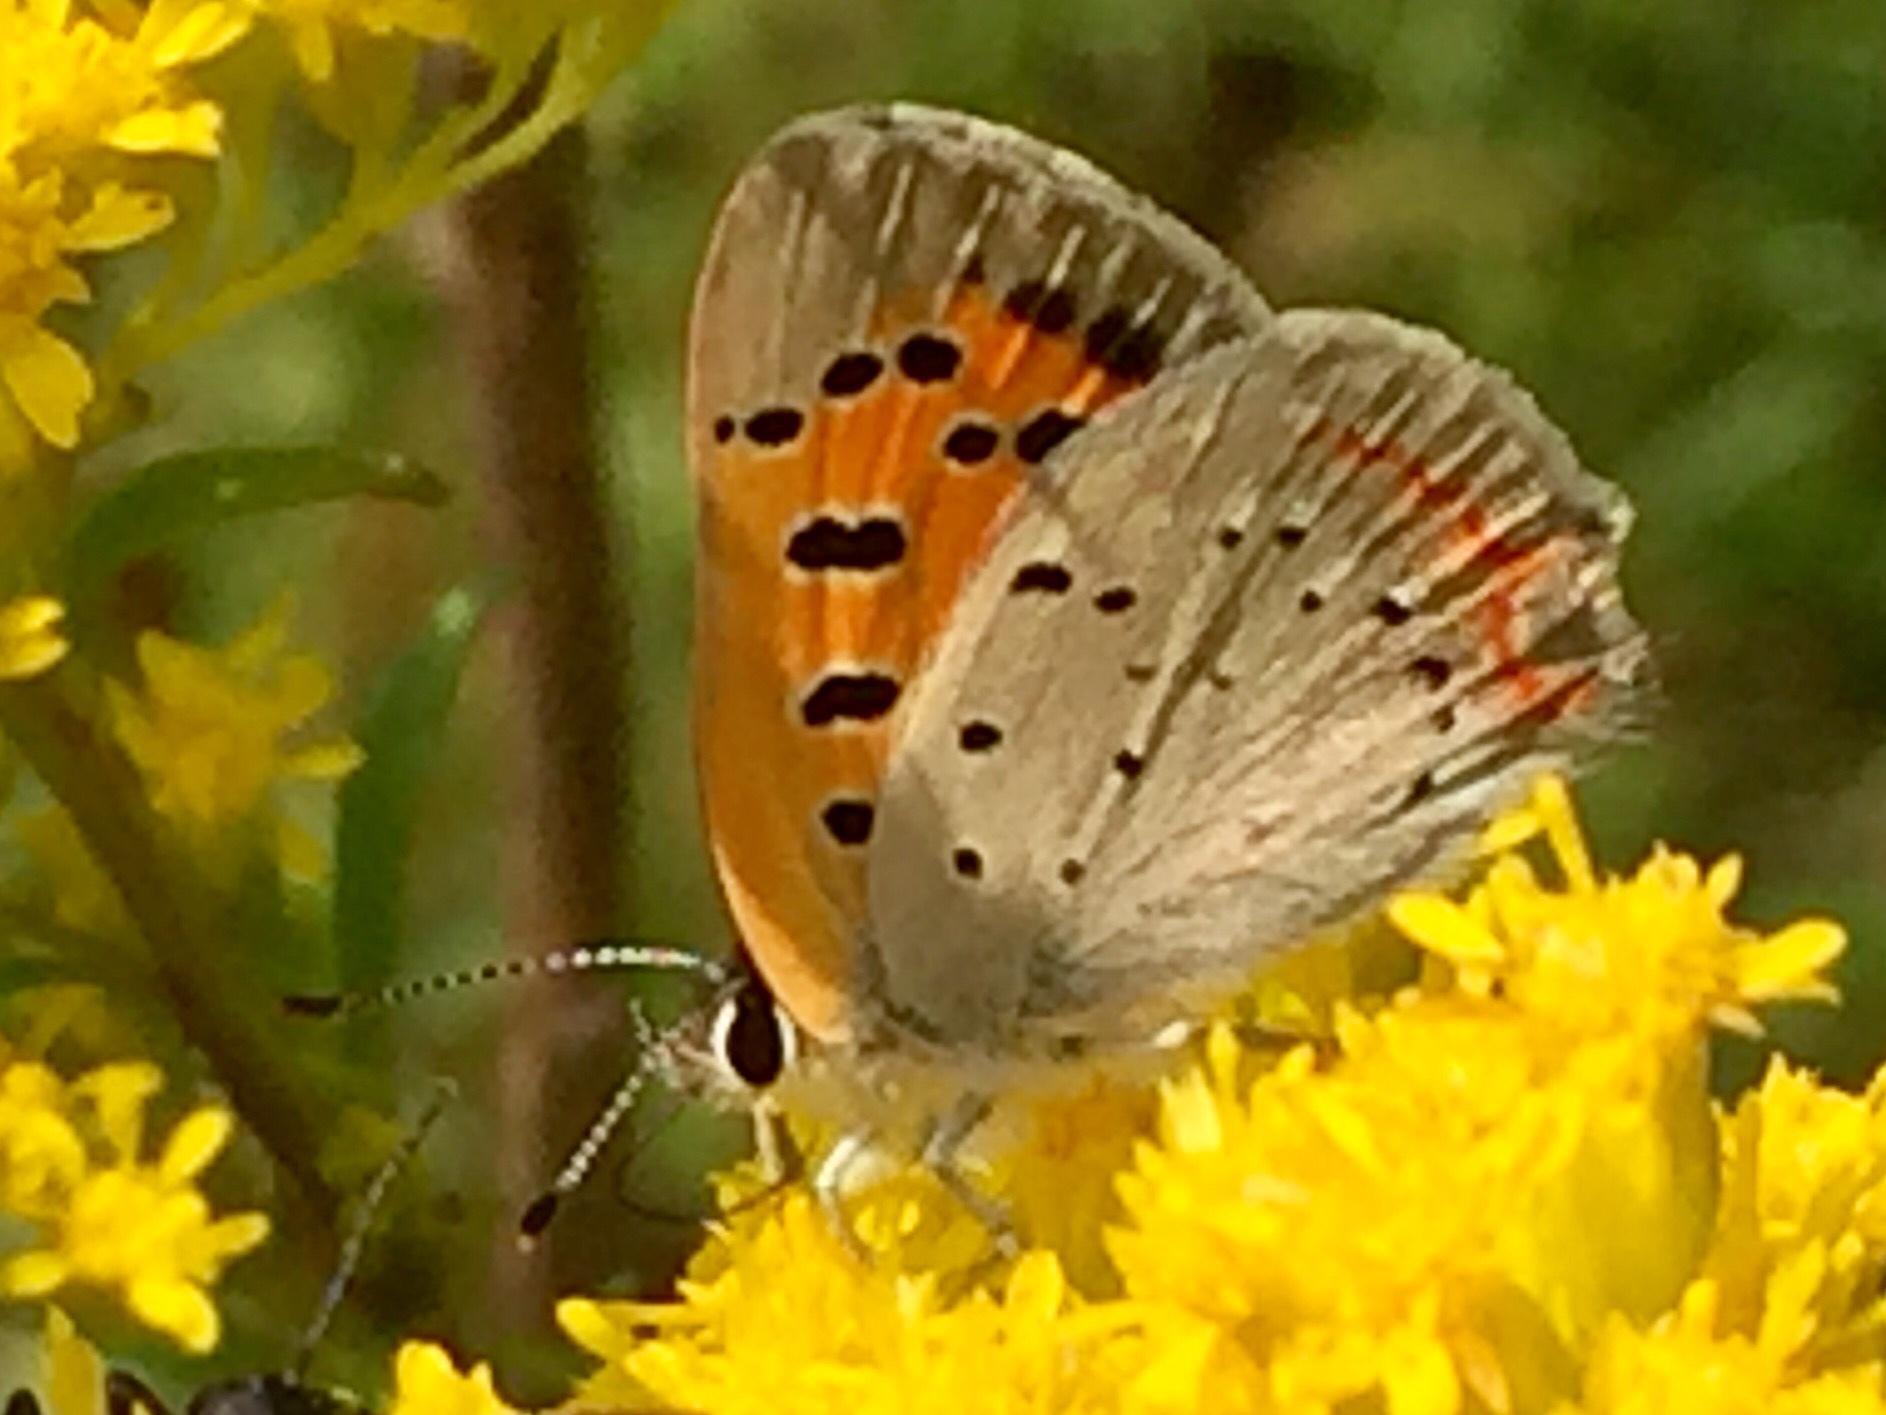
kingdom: Animalia
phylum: Arthropoda
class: Insecta
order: Lepidoptera
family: Lycaenidae
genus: Lycaena
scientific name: Lycaena hypophlaeas
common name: American copper
